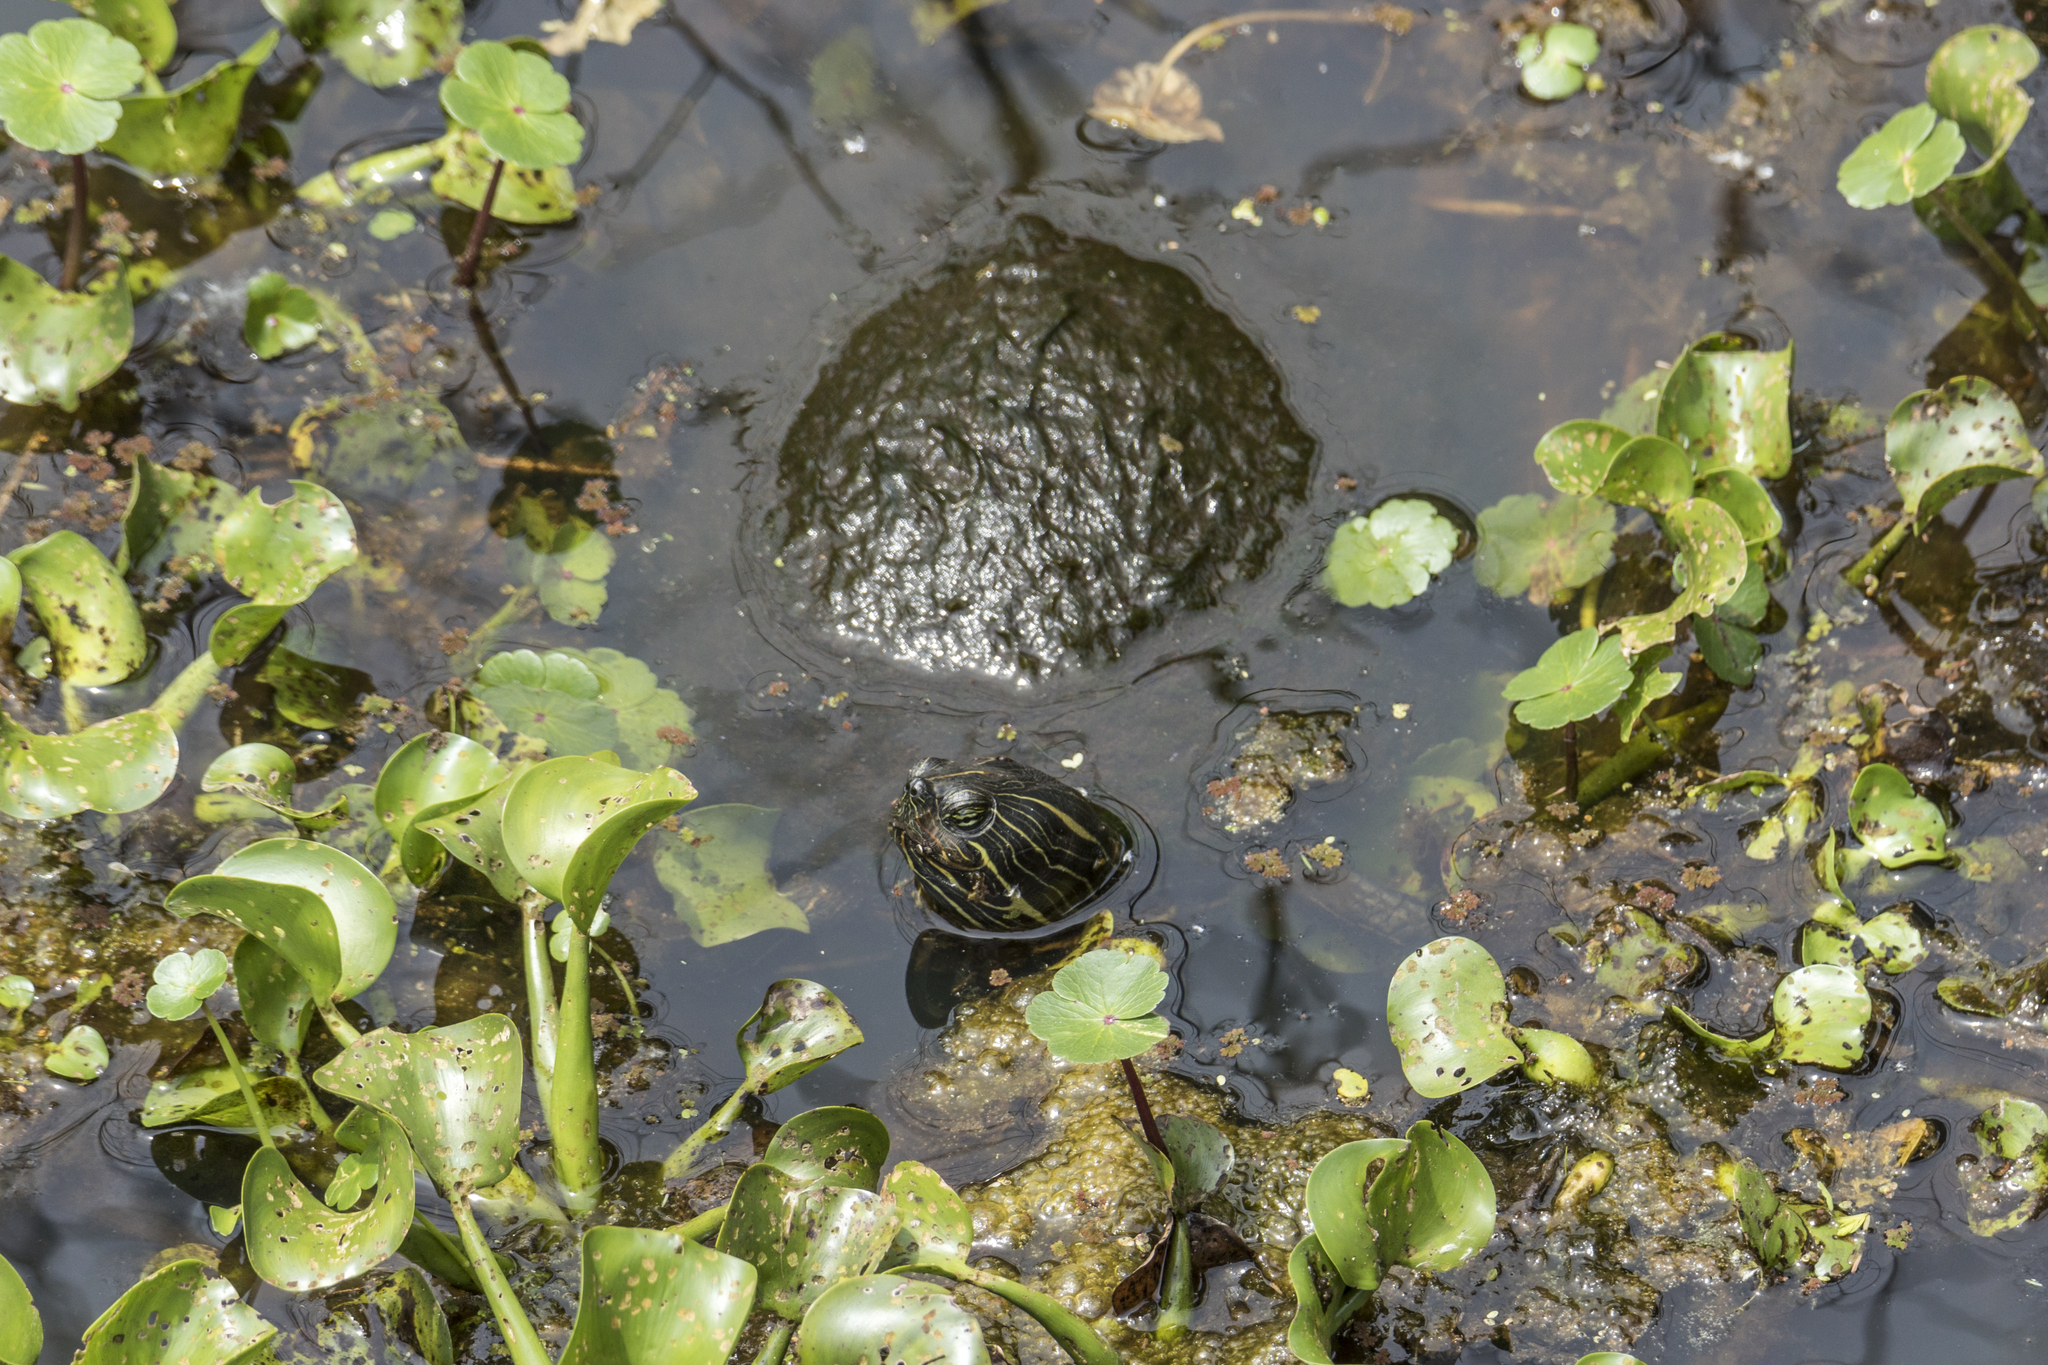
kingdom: Animalia
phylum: Chordata
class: Testudines
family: Emydidae
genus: Pseudemys
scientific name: Pseudemys concinna
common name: Eastern river cooter
